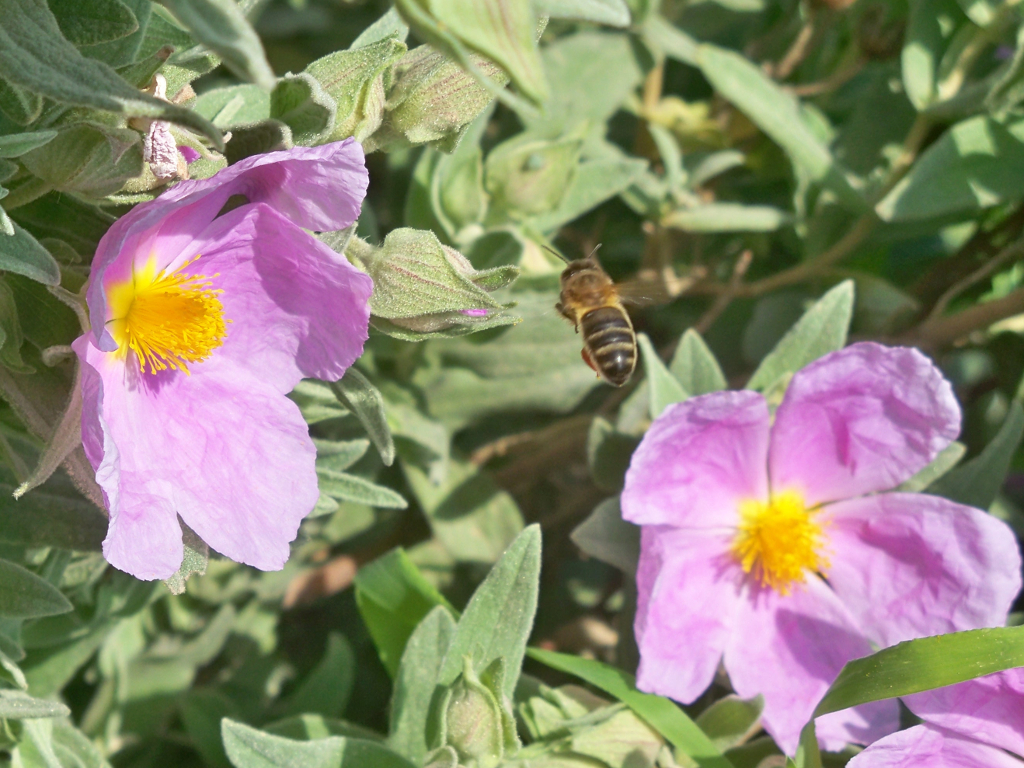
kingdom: Animalia
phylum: Arthropoda
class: Insecta
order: Hymenoptera
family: Apidae
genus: Apis
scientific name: Apis mellifera
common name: Honey bee
